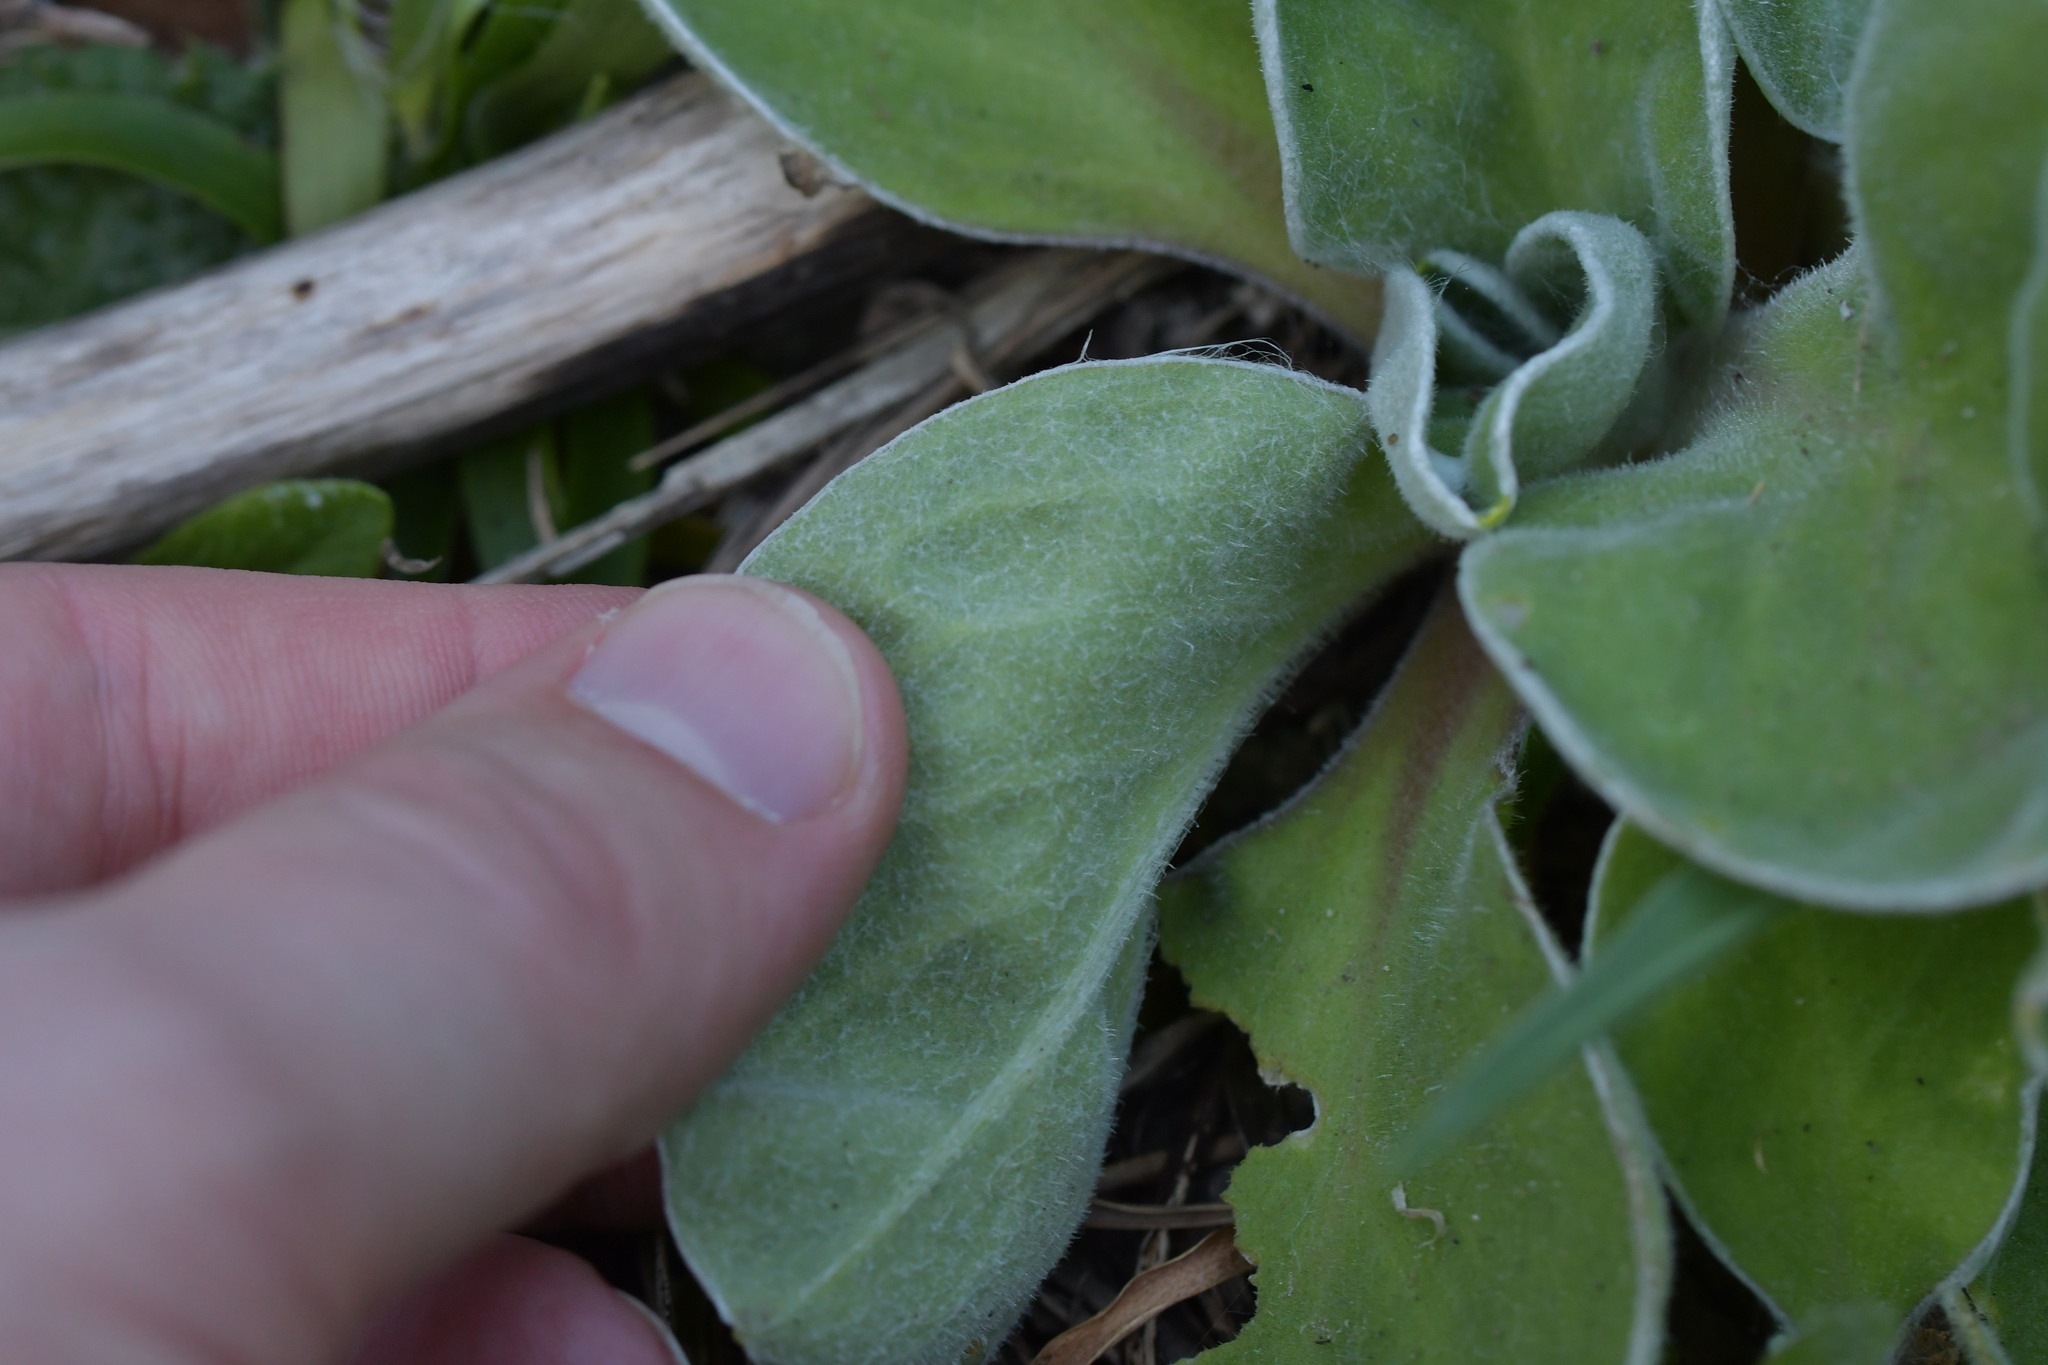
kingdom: Plantae
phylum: Tracheophyta
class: Magnoliopsida
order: Asterales
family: Asteraceae
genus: Craspedia
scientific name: Craspedia uniflora
